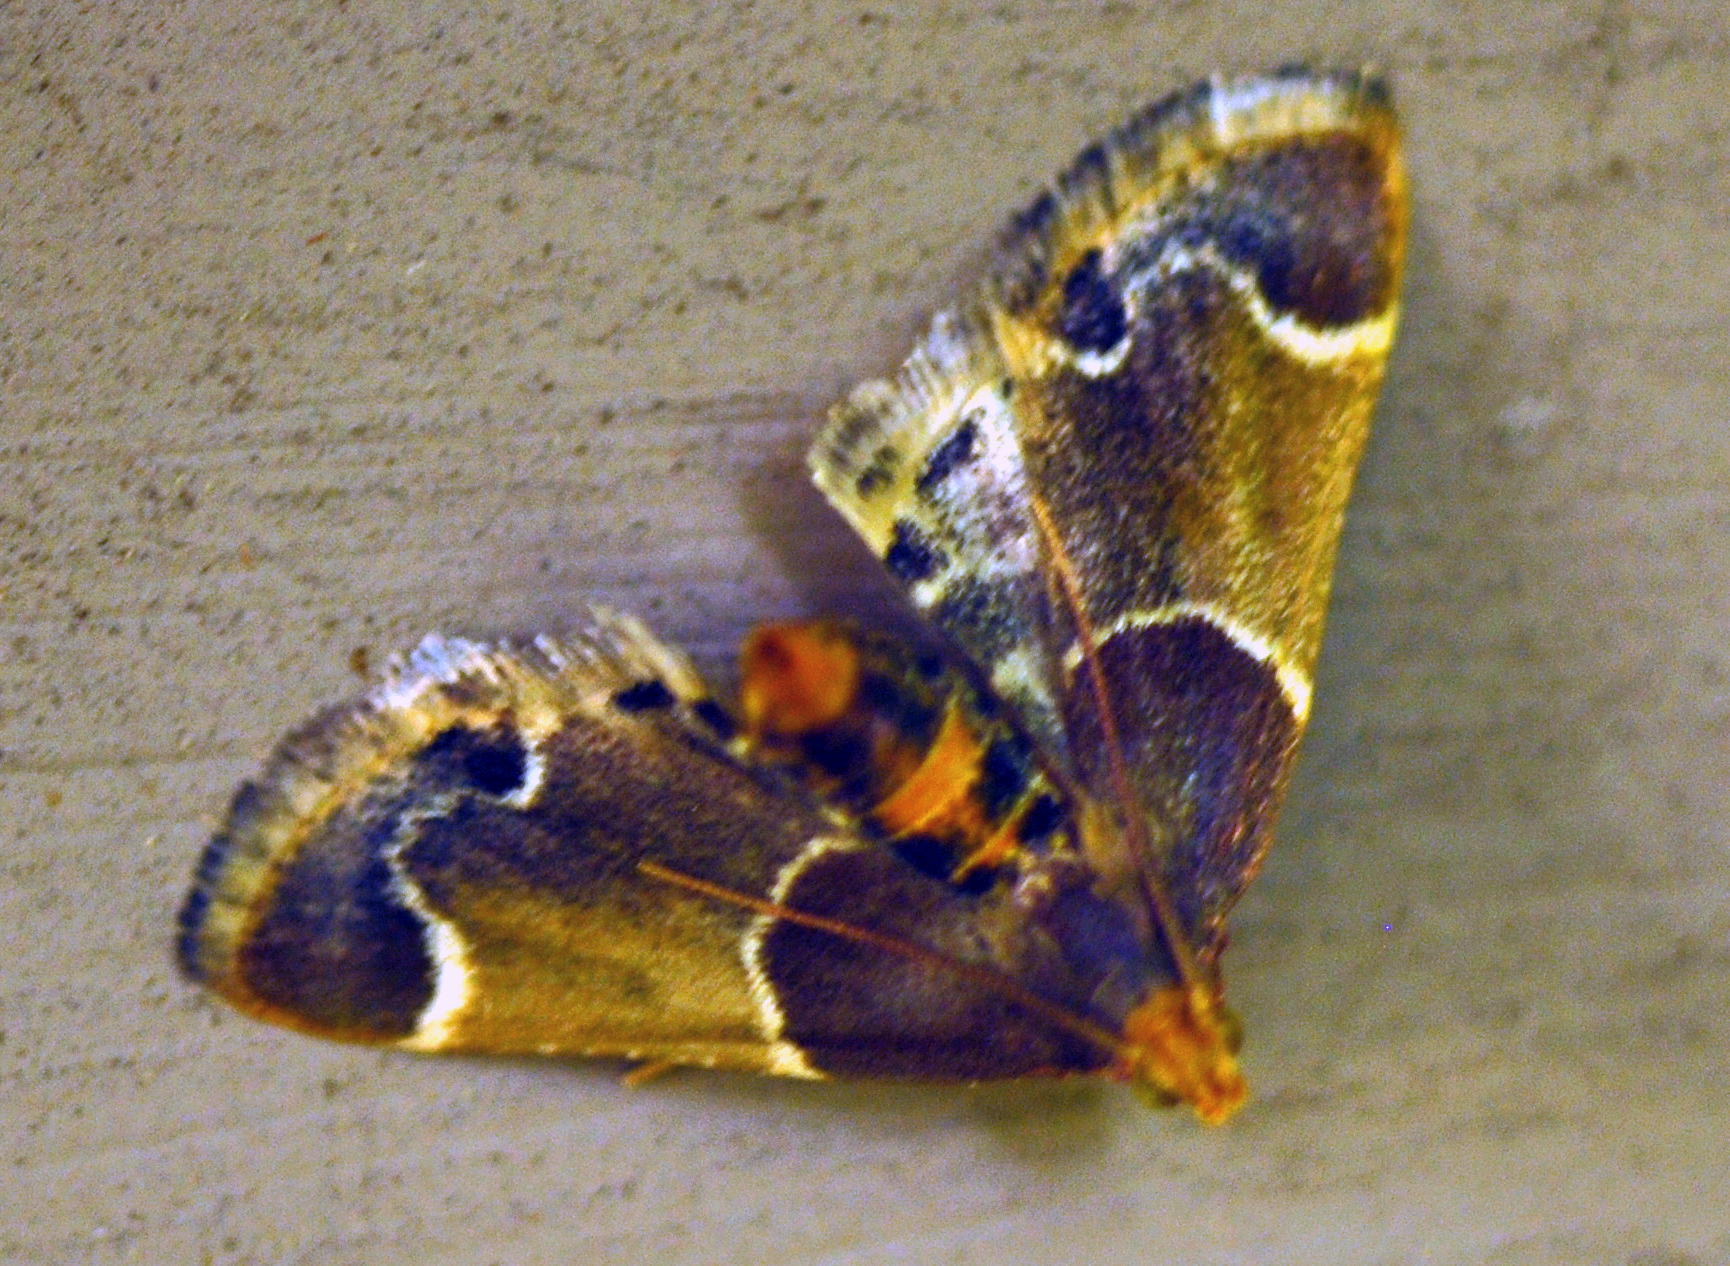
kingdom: Animalia
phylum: Arthropoda
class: Insecta
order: Lepidoptera
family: Pyralidae
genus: Pyralis
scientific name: Pyralis farinalis
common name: Meal moth
